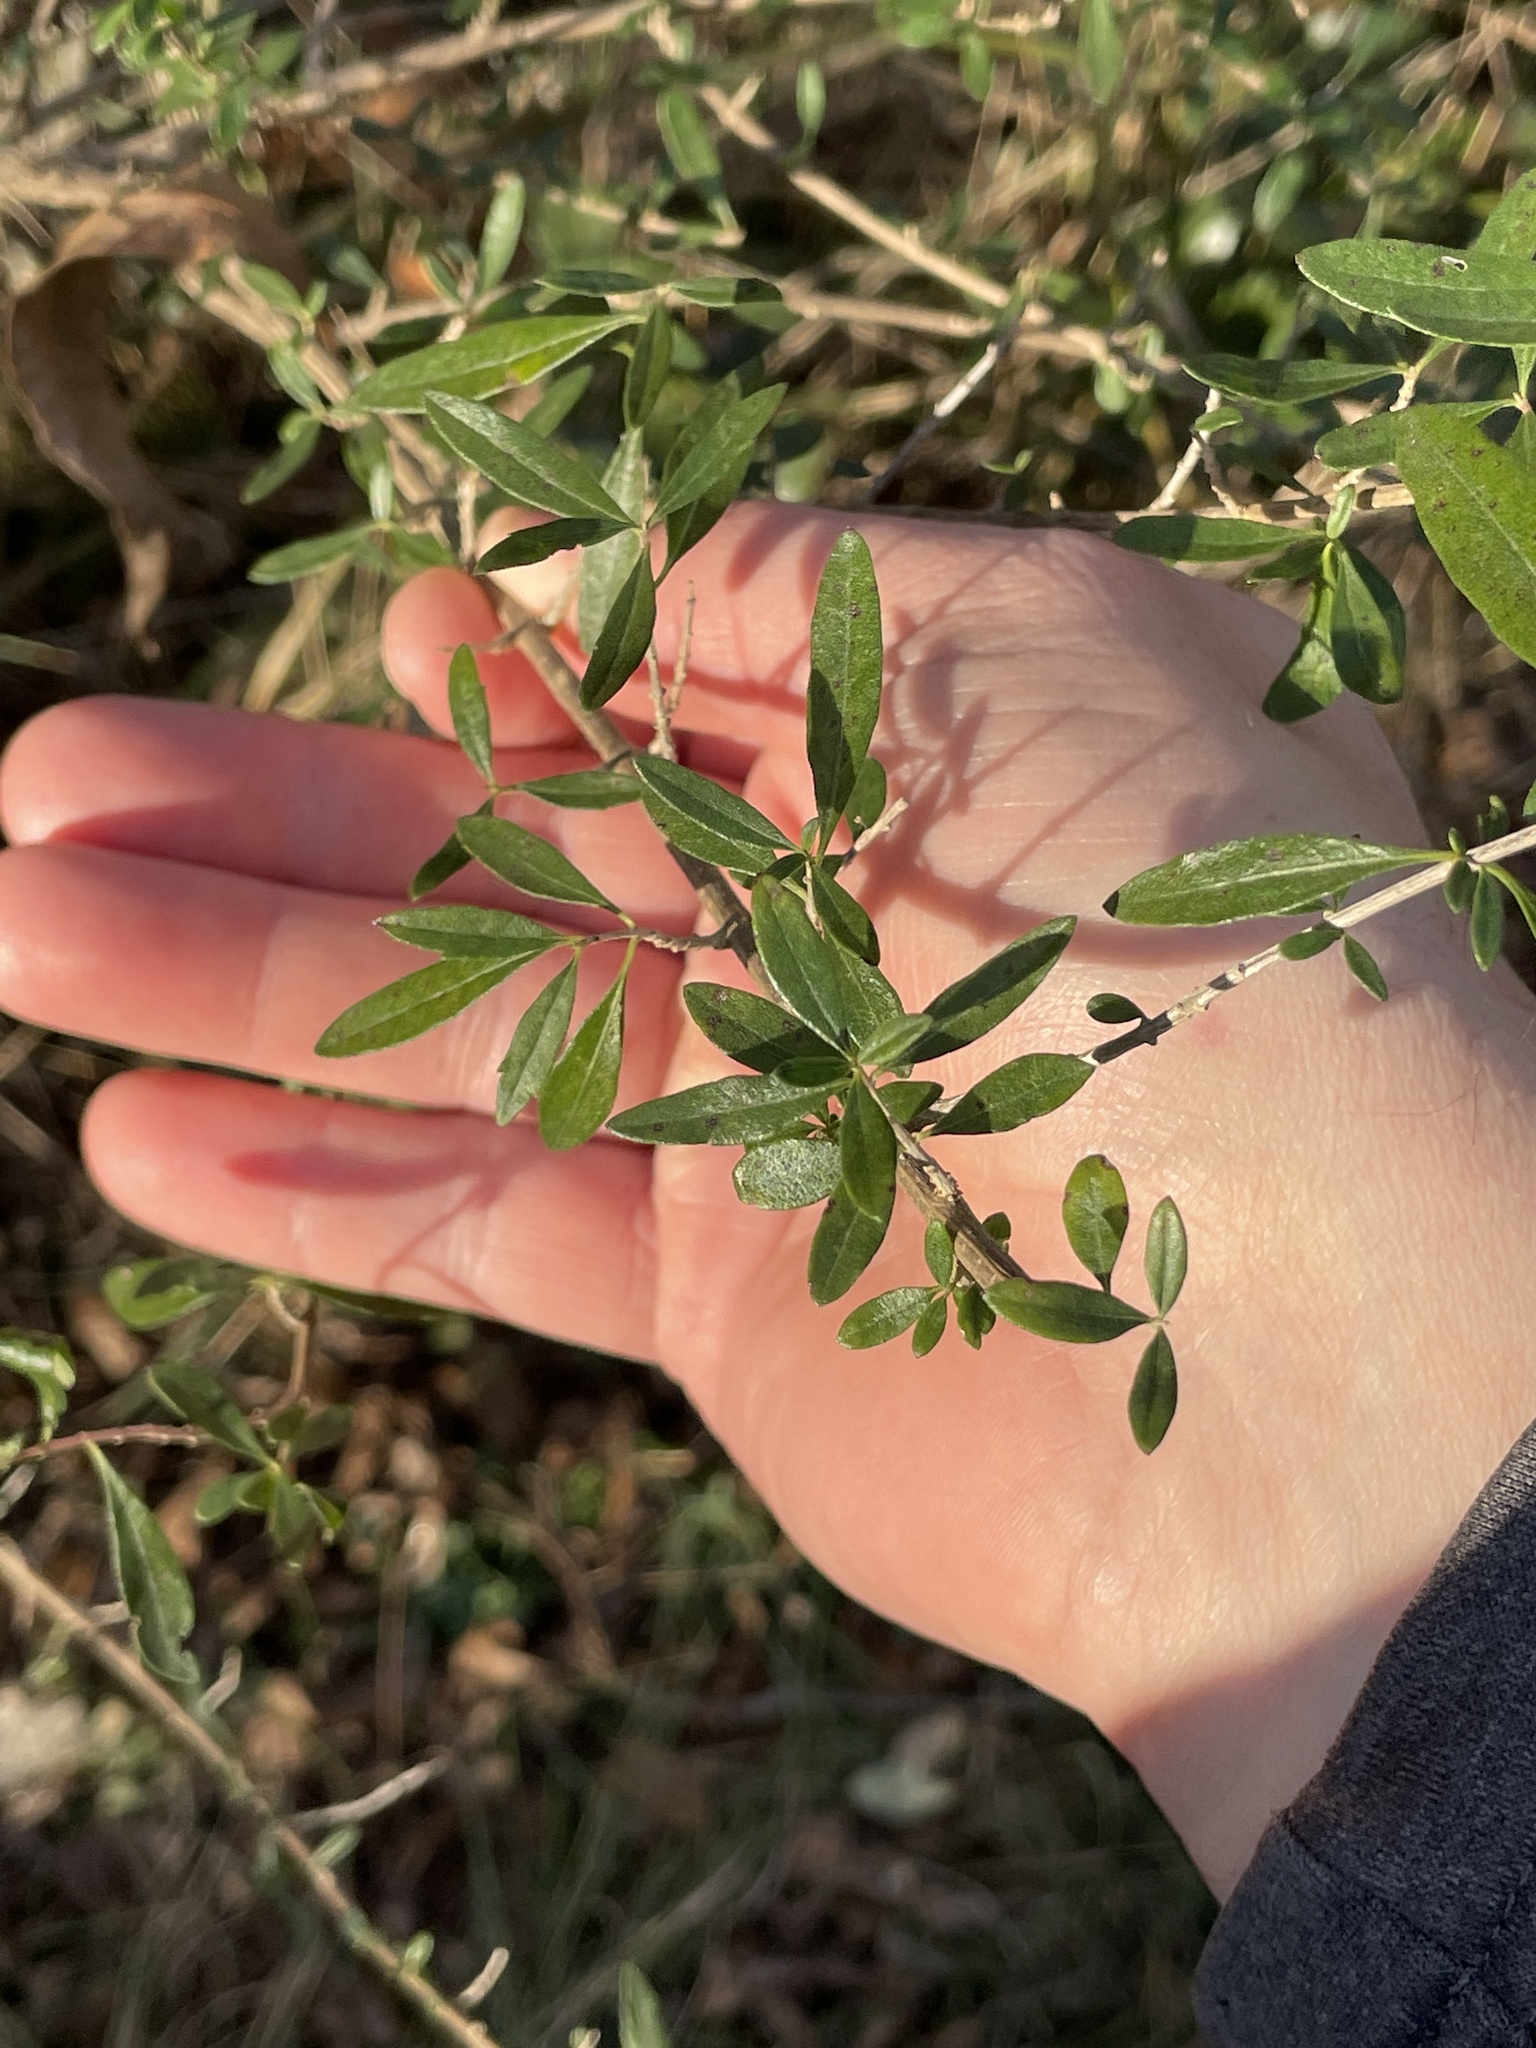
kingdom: Plantae
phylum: Tracheophyta
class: Magnoliopsida
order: Lamiales
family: Verbenaceae
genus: Aloysia
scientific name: Aloysia gratissima
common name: Common bee-brush
